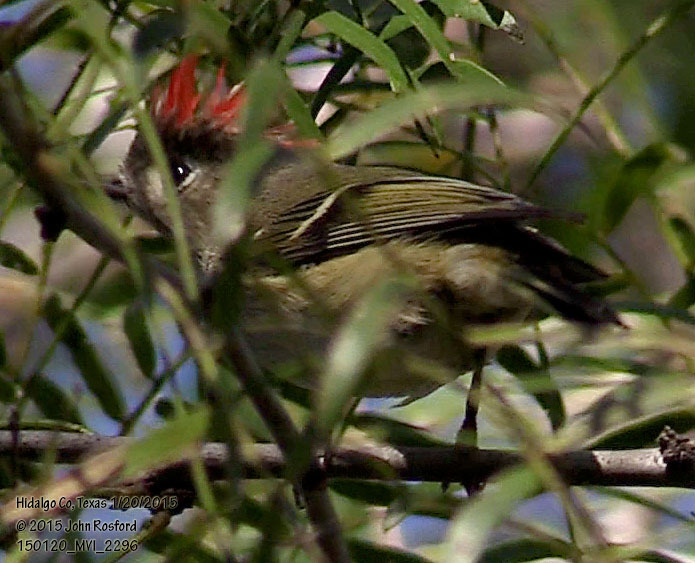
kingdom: Animalia
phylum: Chordata
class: Aves
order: Passeriformes
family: Regulidae
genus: Regulus
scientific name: Regulus calendula
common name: Ruby-crowned kinglet
